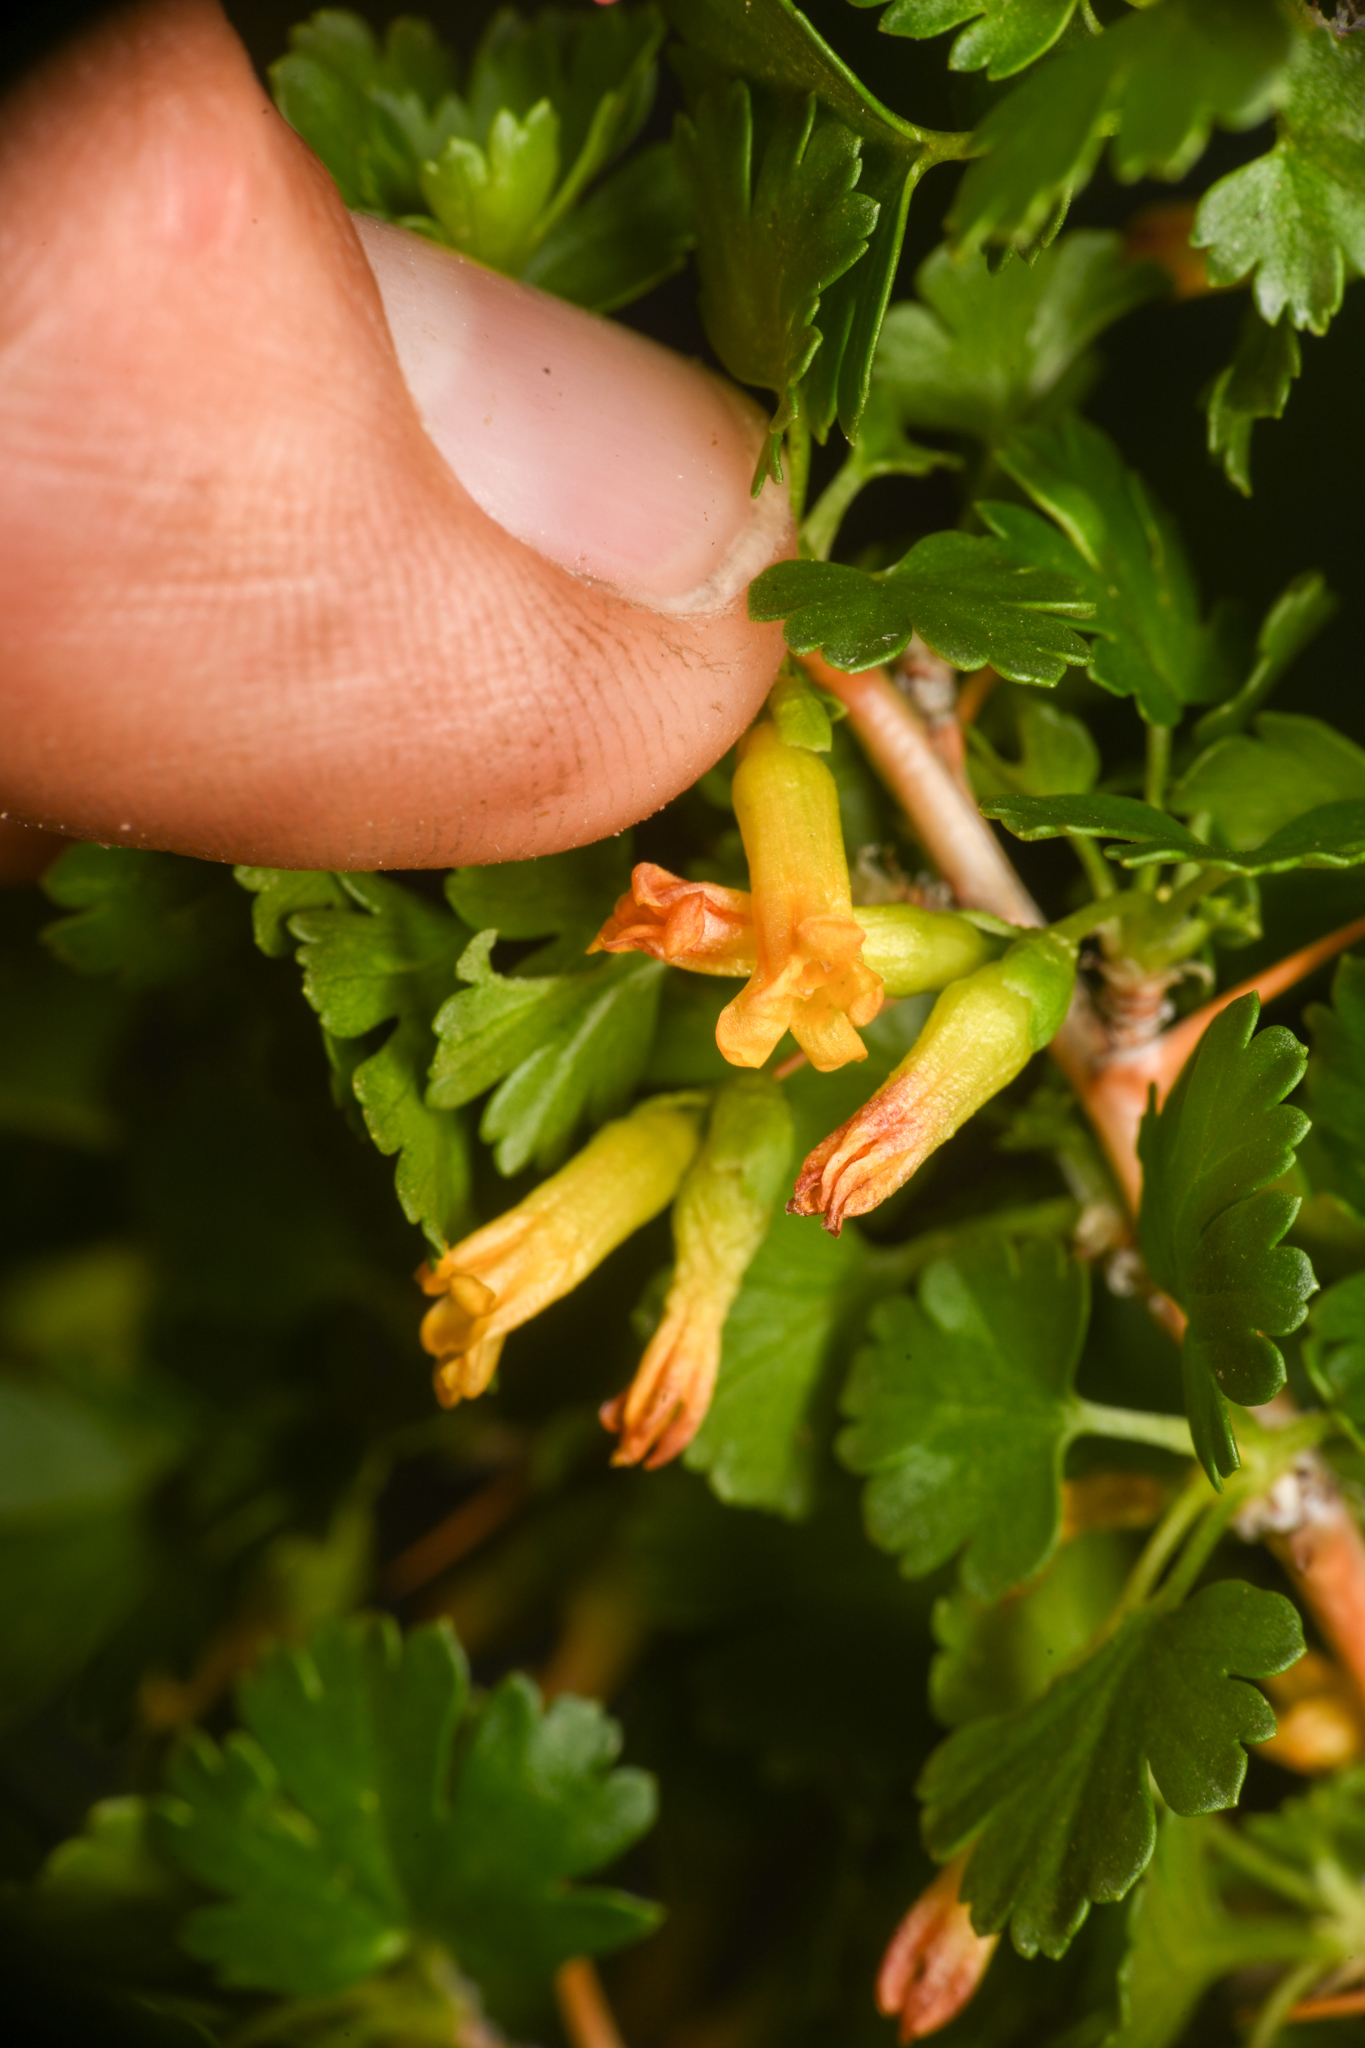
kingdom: Plantae
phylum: Tracheophyta
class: Magnoliopsida
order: Saxifragales
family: Grossulariaceae
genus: Ribes
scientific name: Ribes quercetorum
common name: Oak gooseberry
